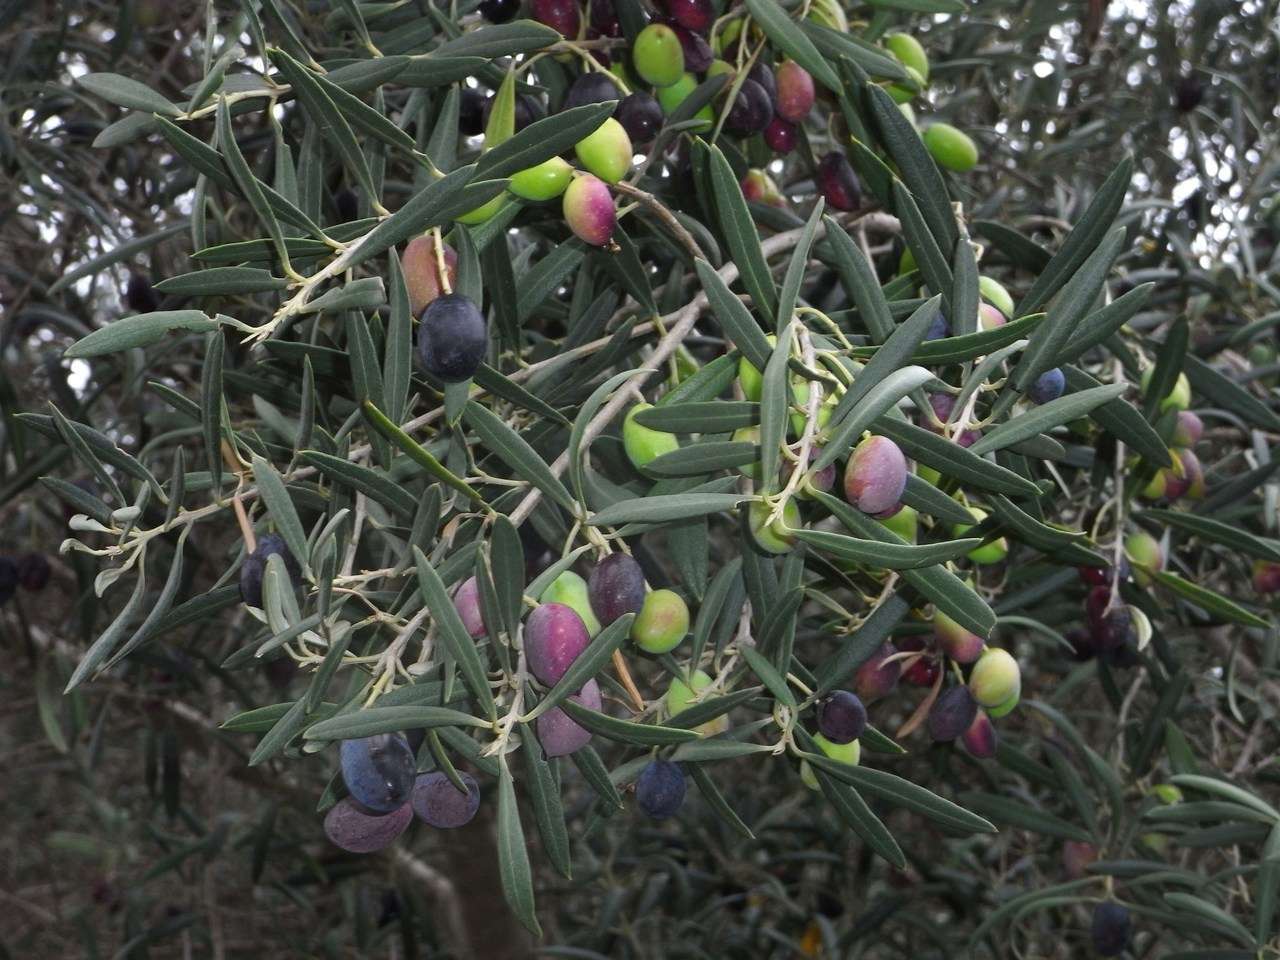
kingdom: Plantae
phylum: Tracheophyta
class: Magnoliopsida
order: Lamiales
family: Oleaceae
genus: Olea
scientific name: Olea europaea
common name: Olive
